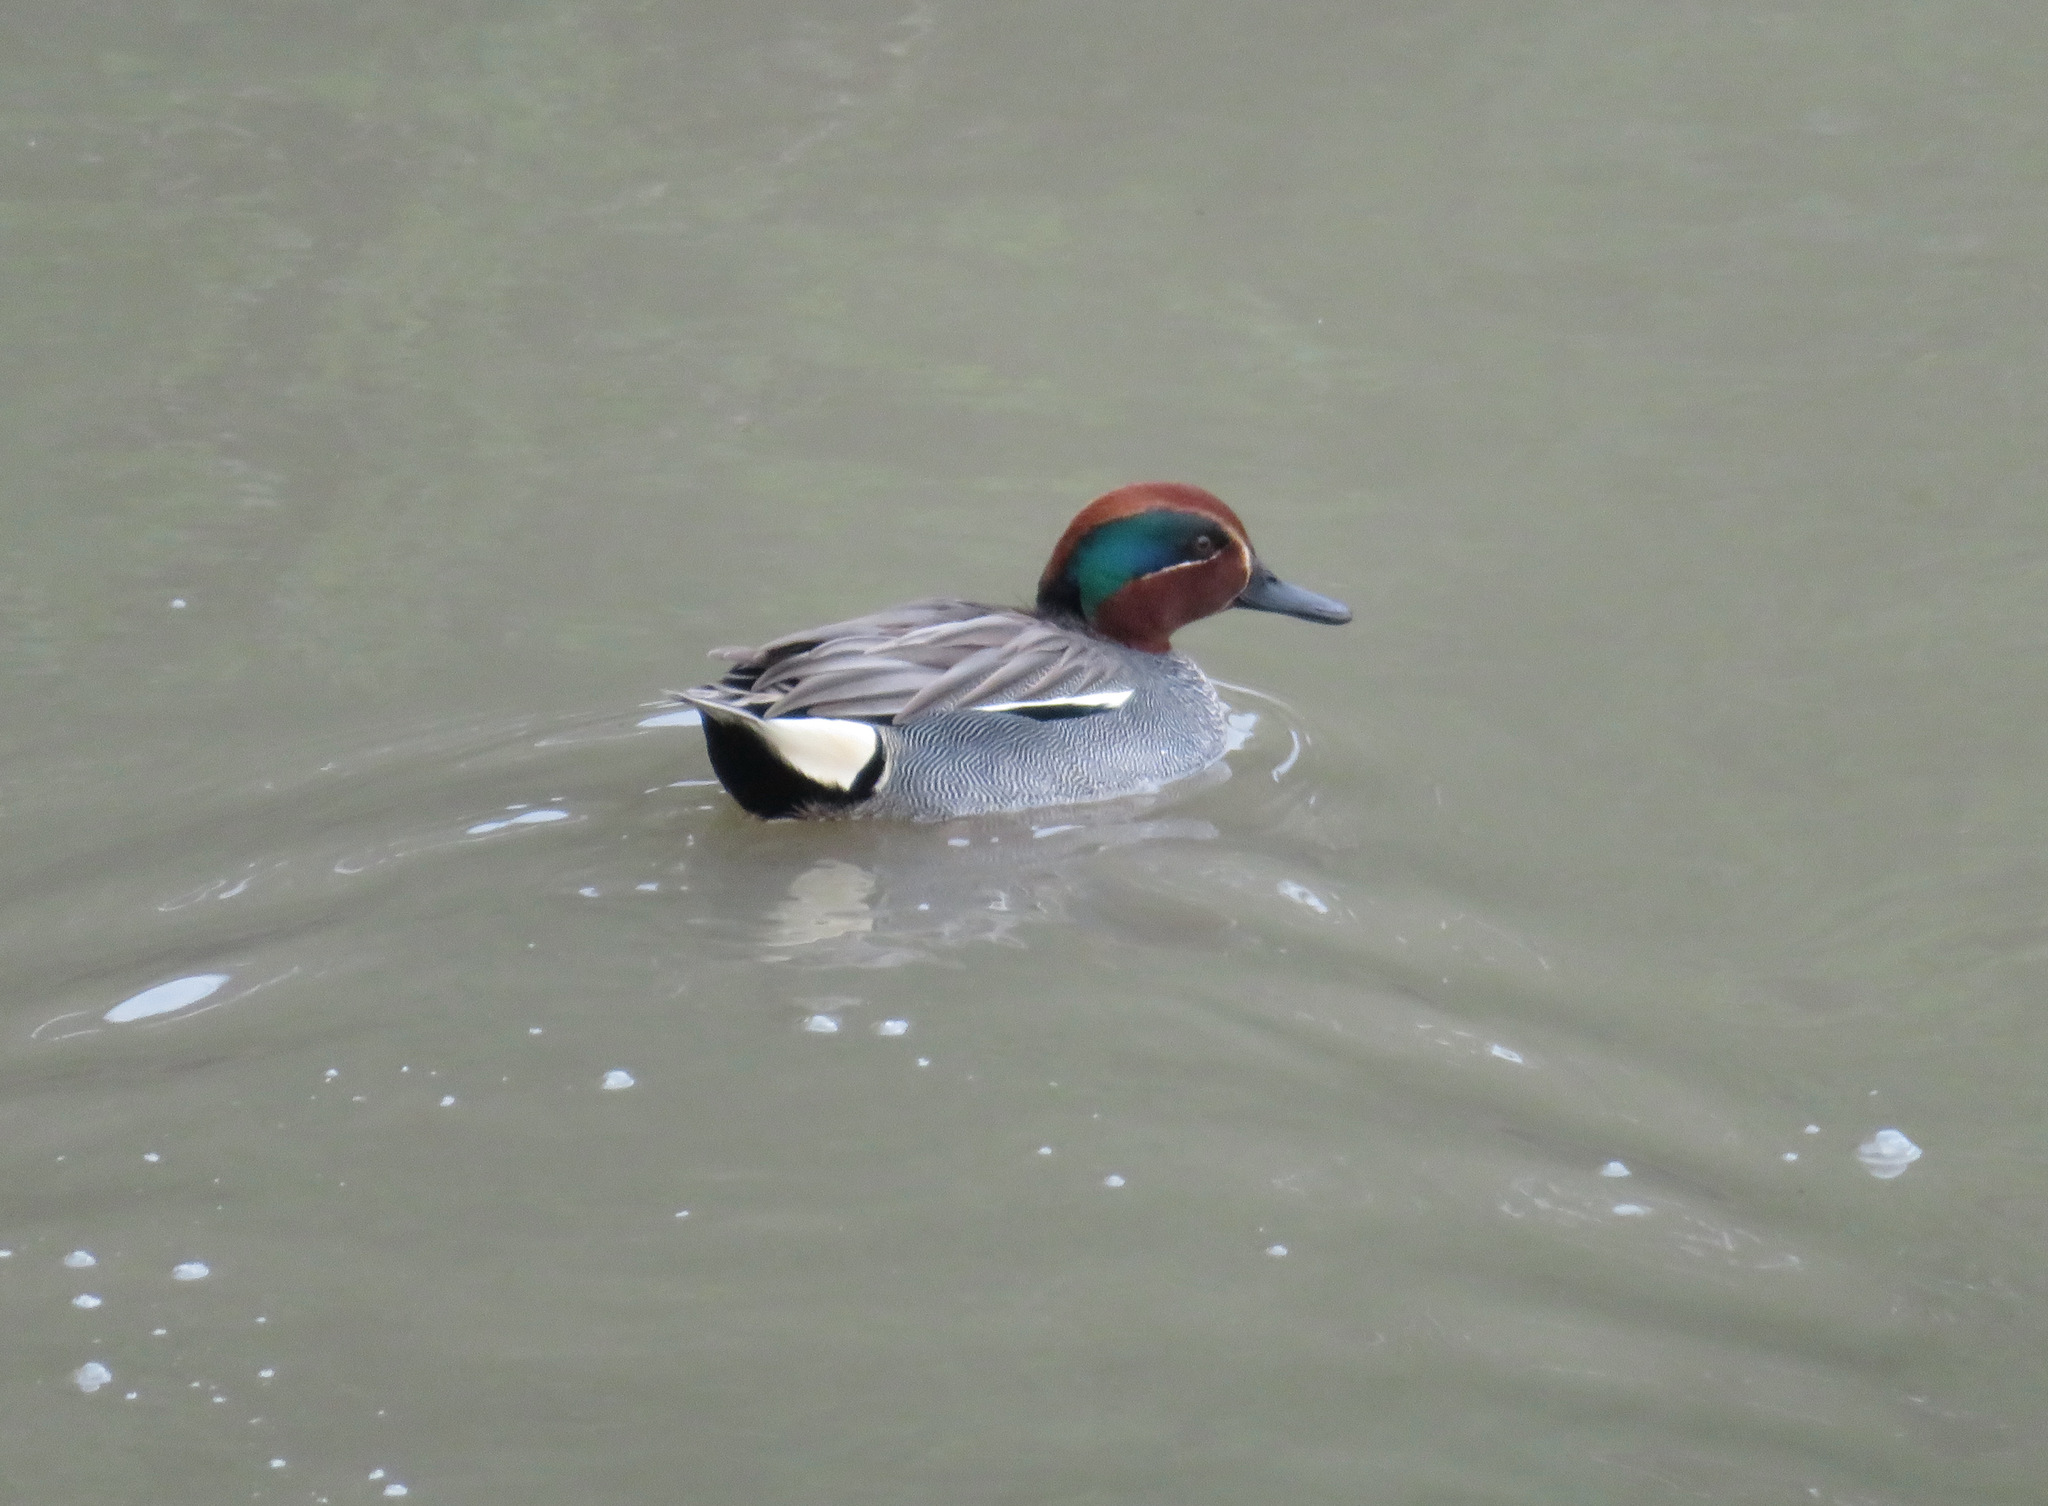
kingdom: Animalia
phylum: Chordata
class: Aves
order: Anseriformes
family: Anatidae
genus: Anas
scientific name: Anas crecca
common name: Eurasian teal
